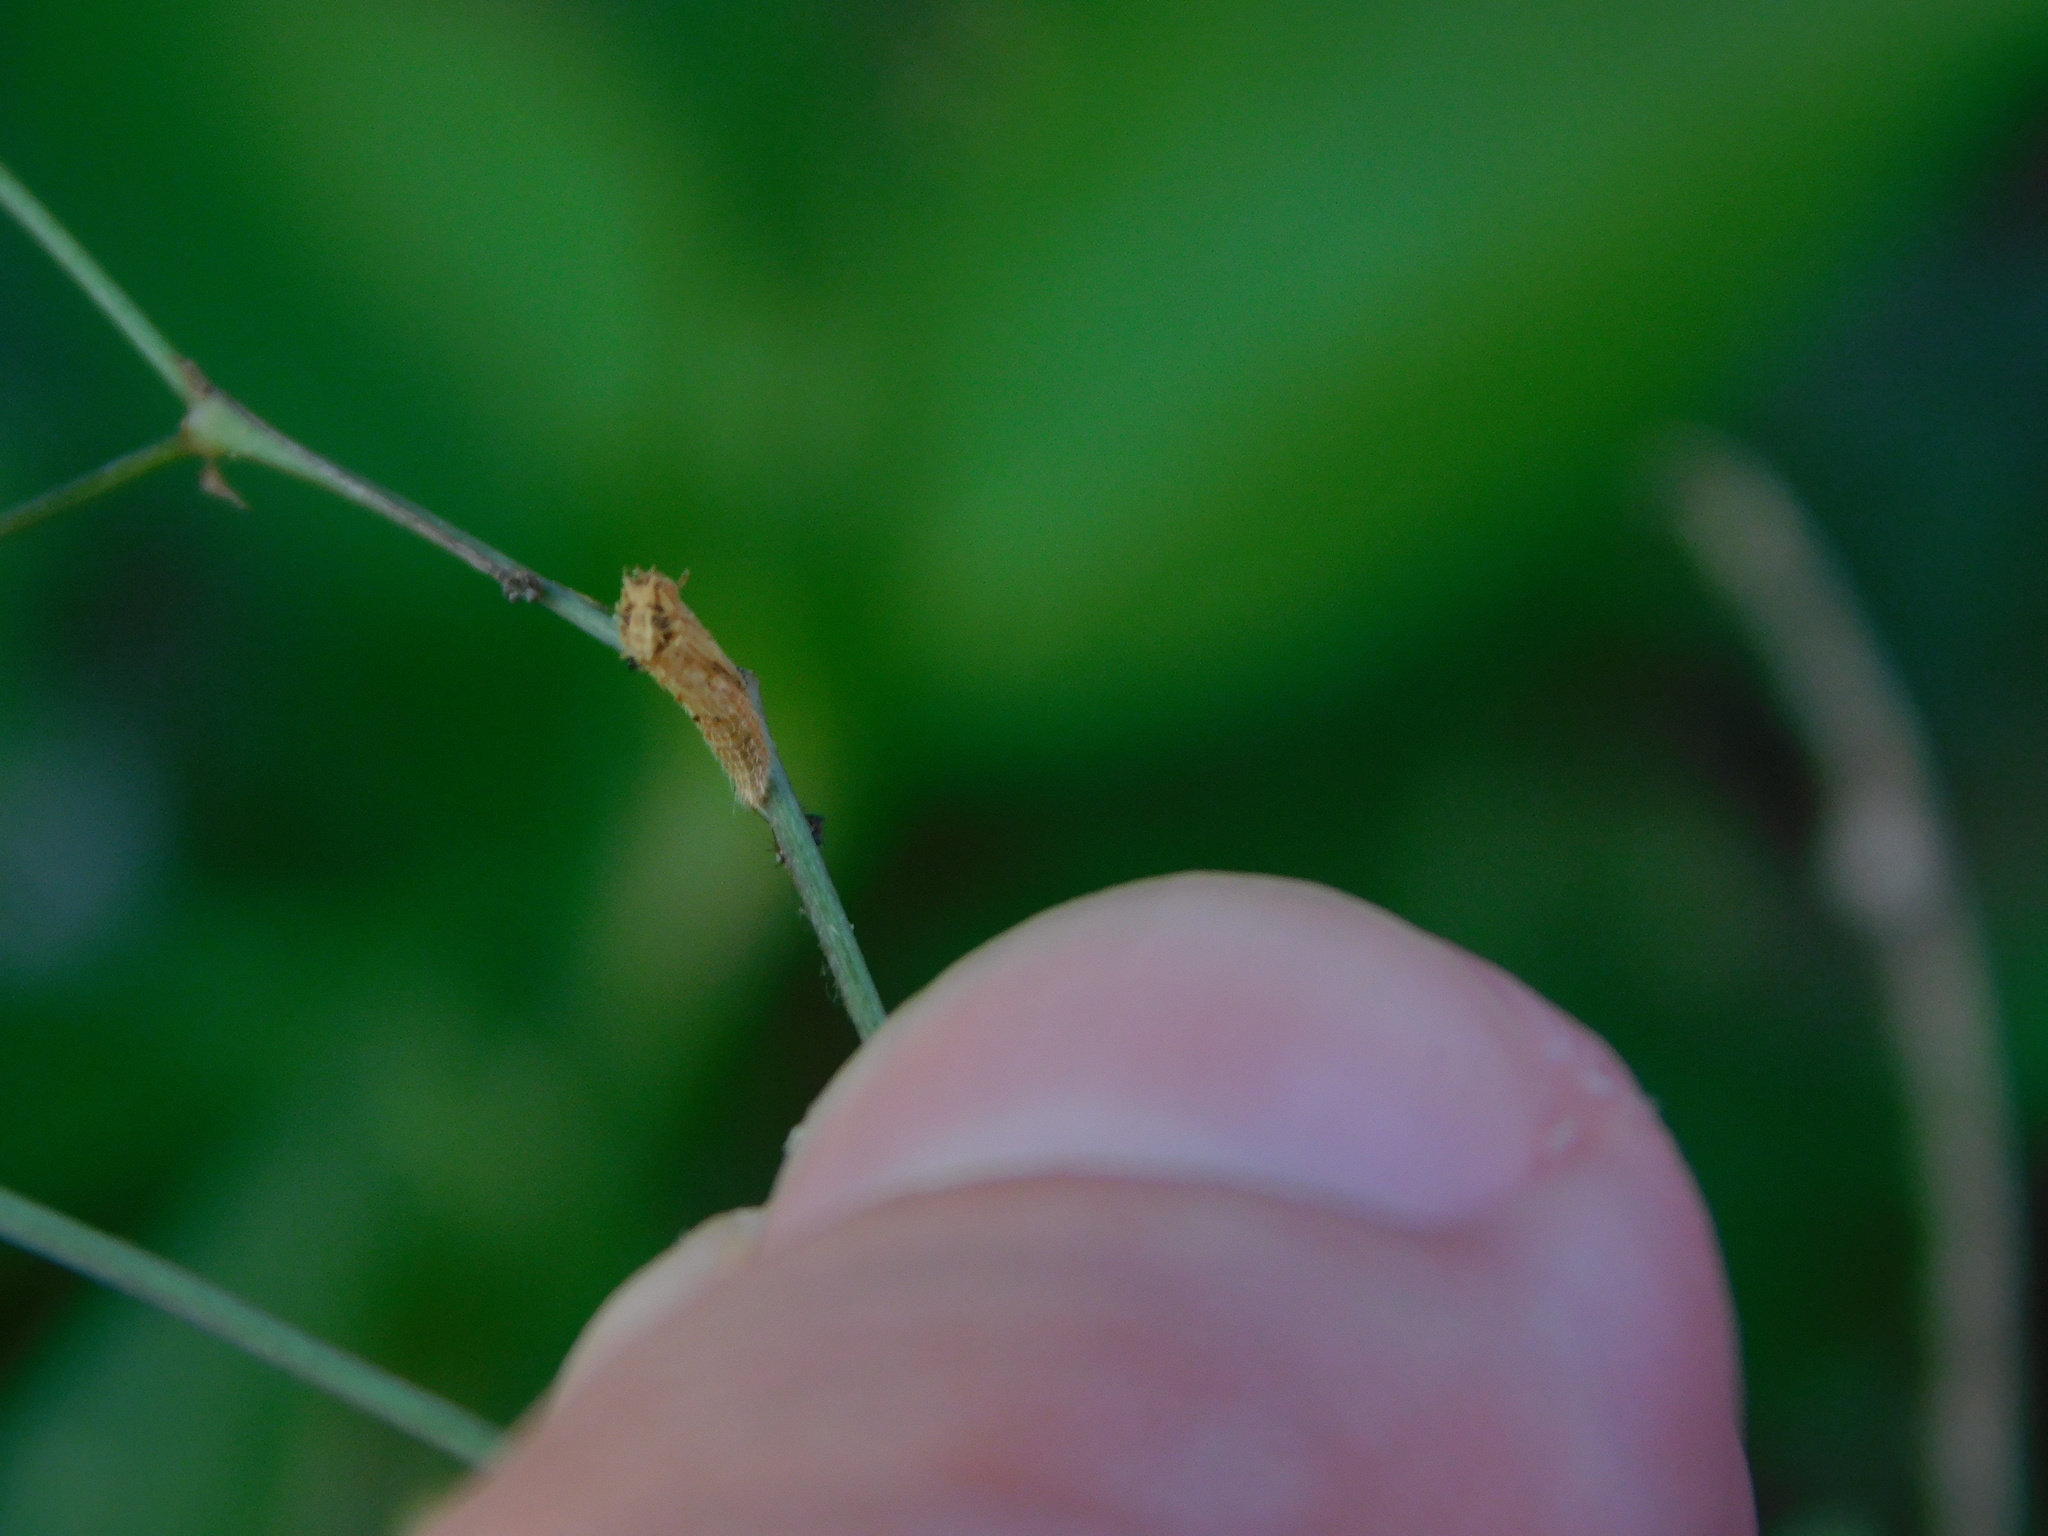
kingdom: Animalia
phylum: Arthropoda
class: Insecta
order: Lepidoptera
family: Pterophoridae
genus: Megalorhipida
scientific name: Megalorhipida leucodactylus
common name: Plume moth
